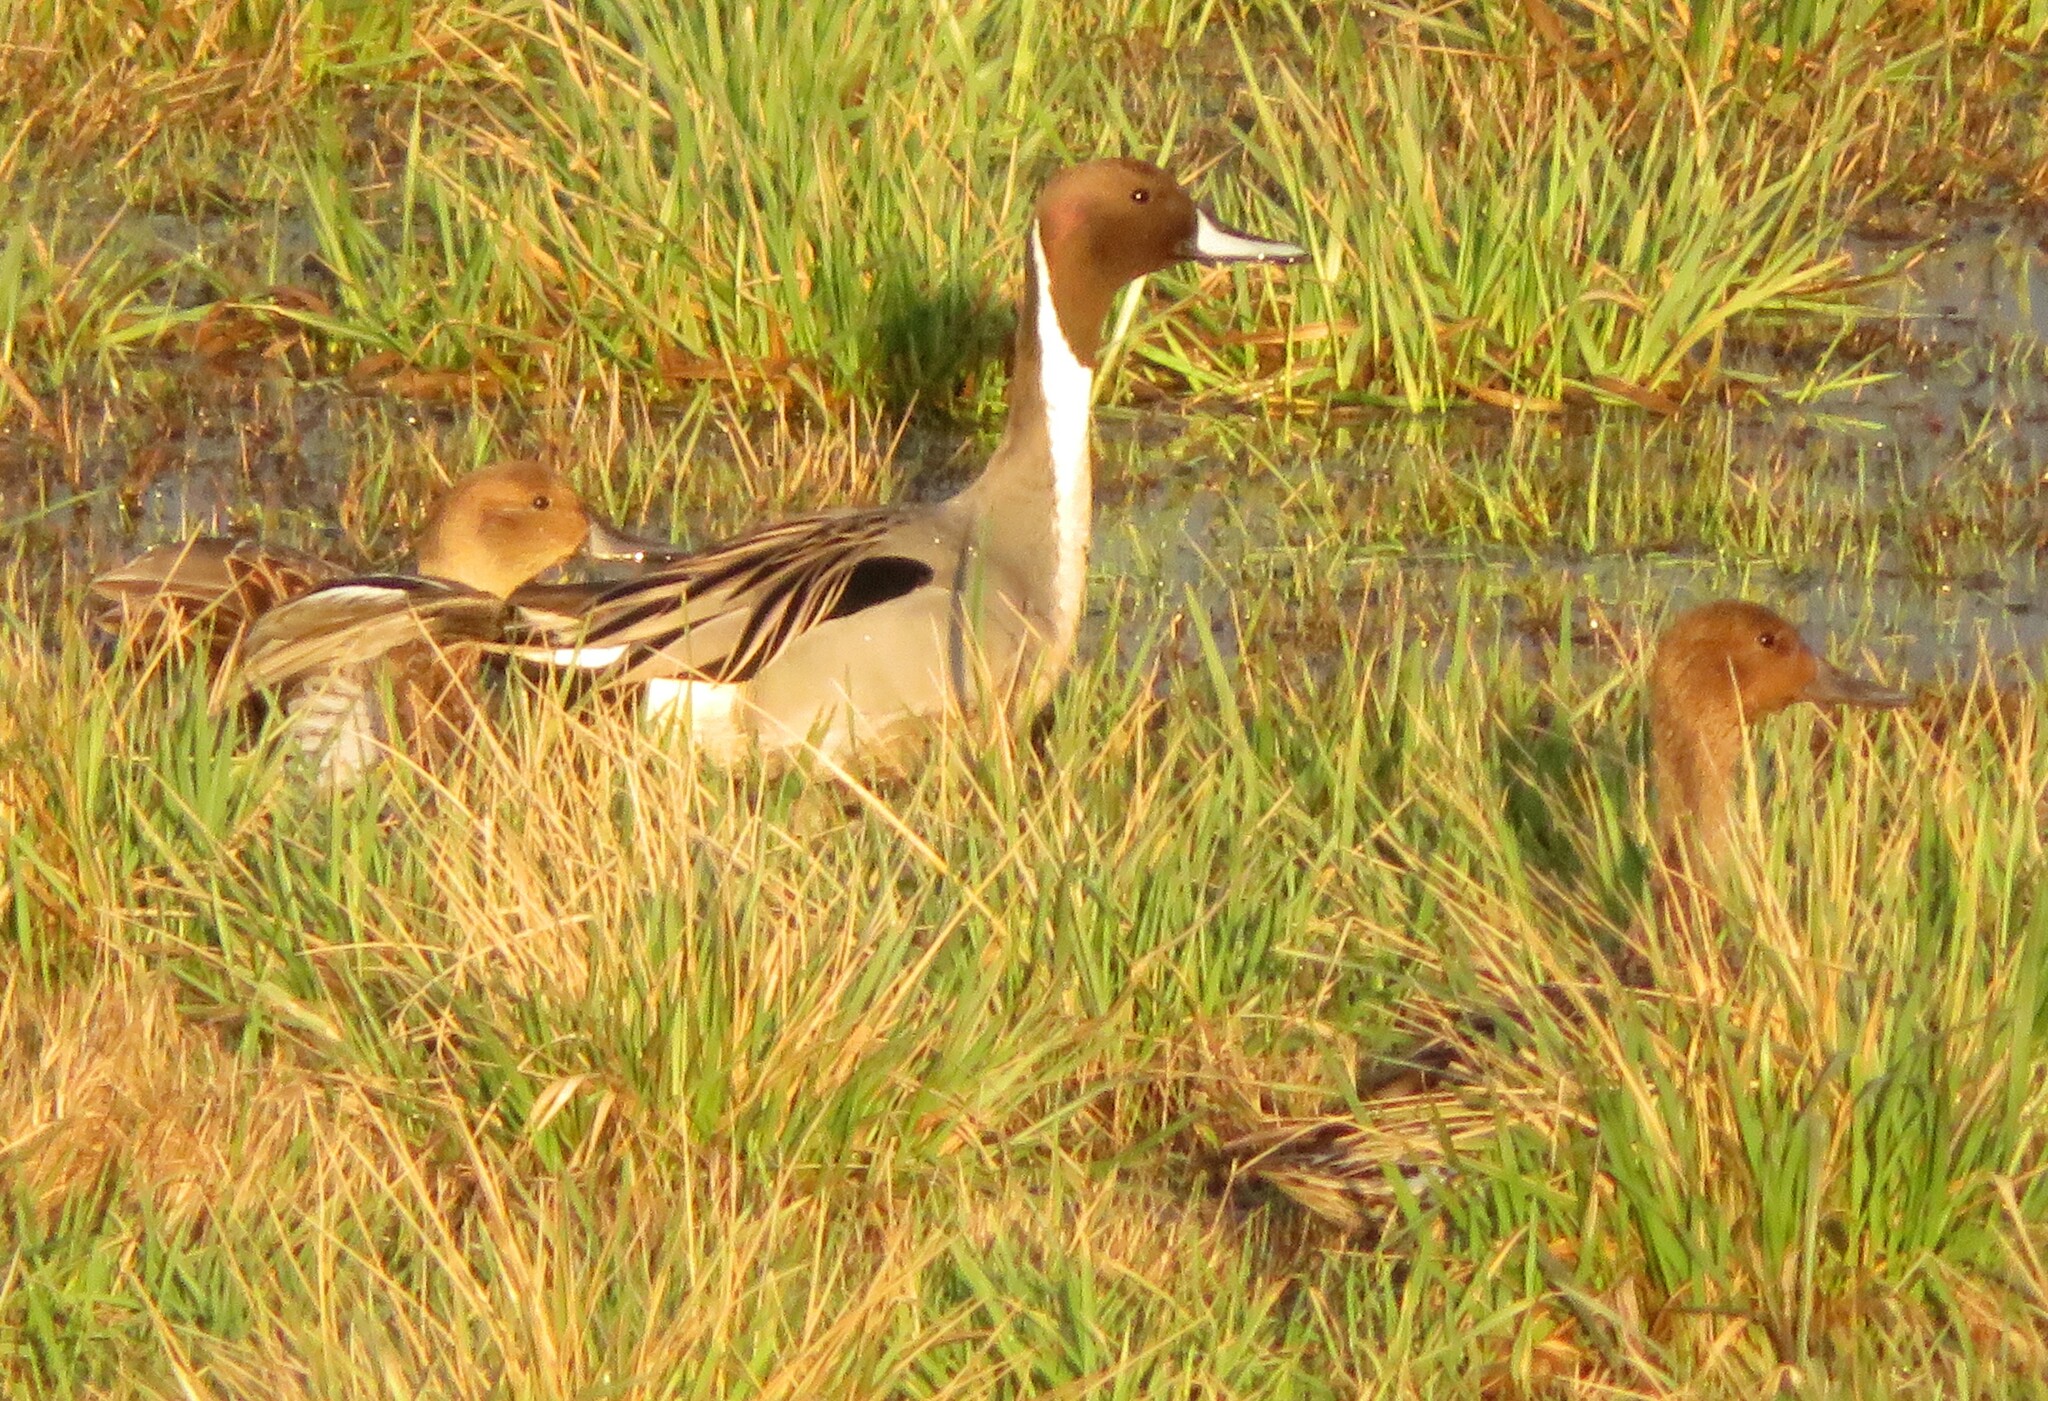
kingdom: Animalia
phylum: Chordata
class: Aves
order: Anseriformes
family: Anatidae
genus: Anas
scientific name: Anas acuta
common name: Northern pintail
